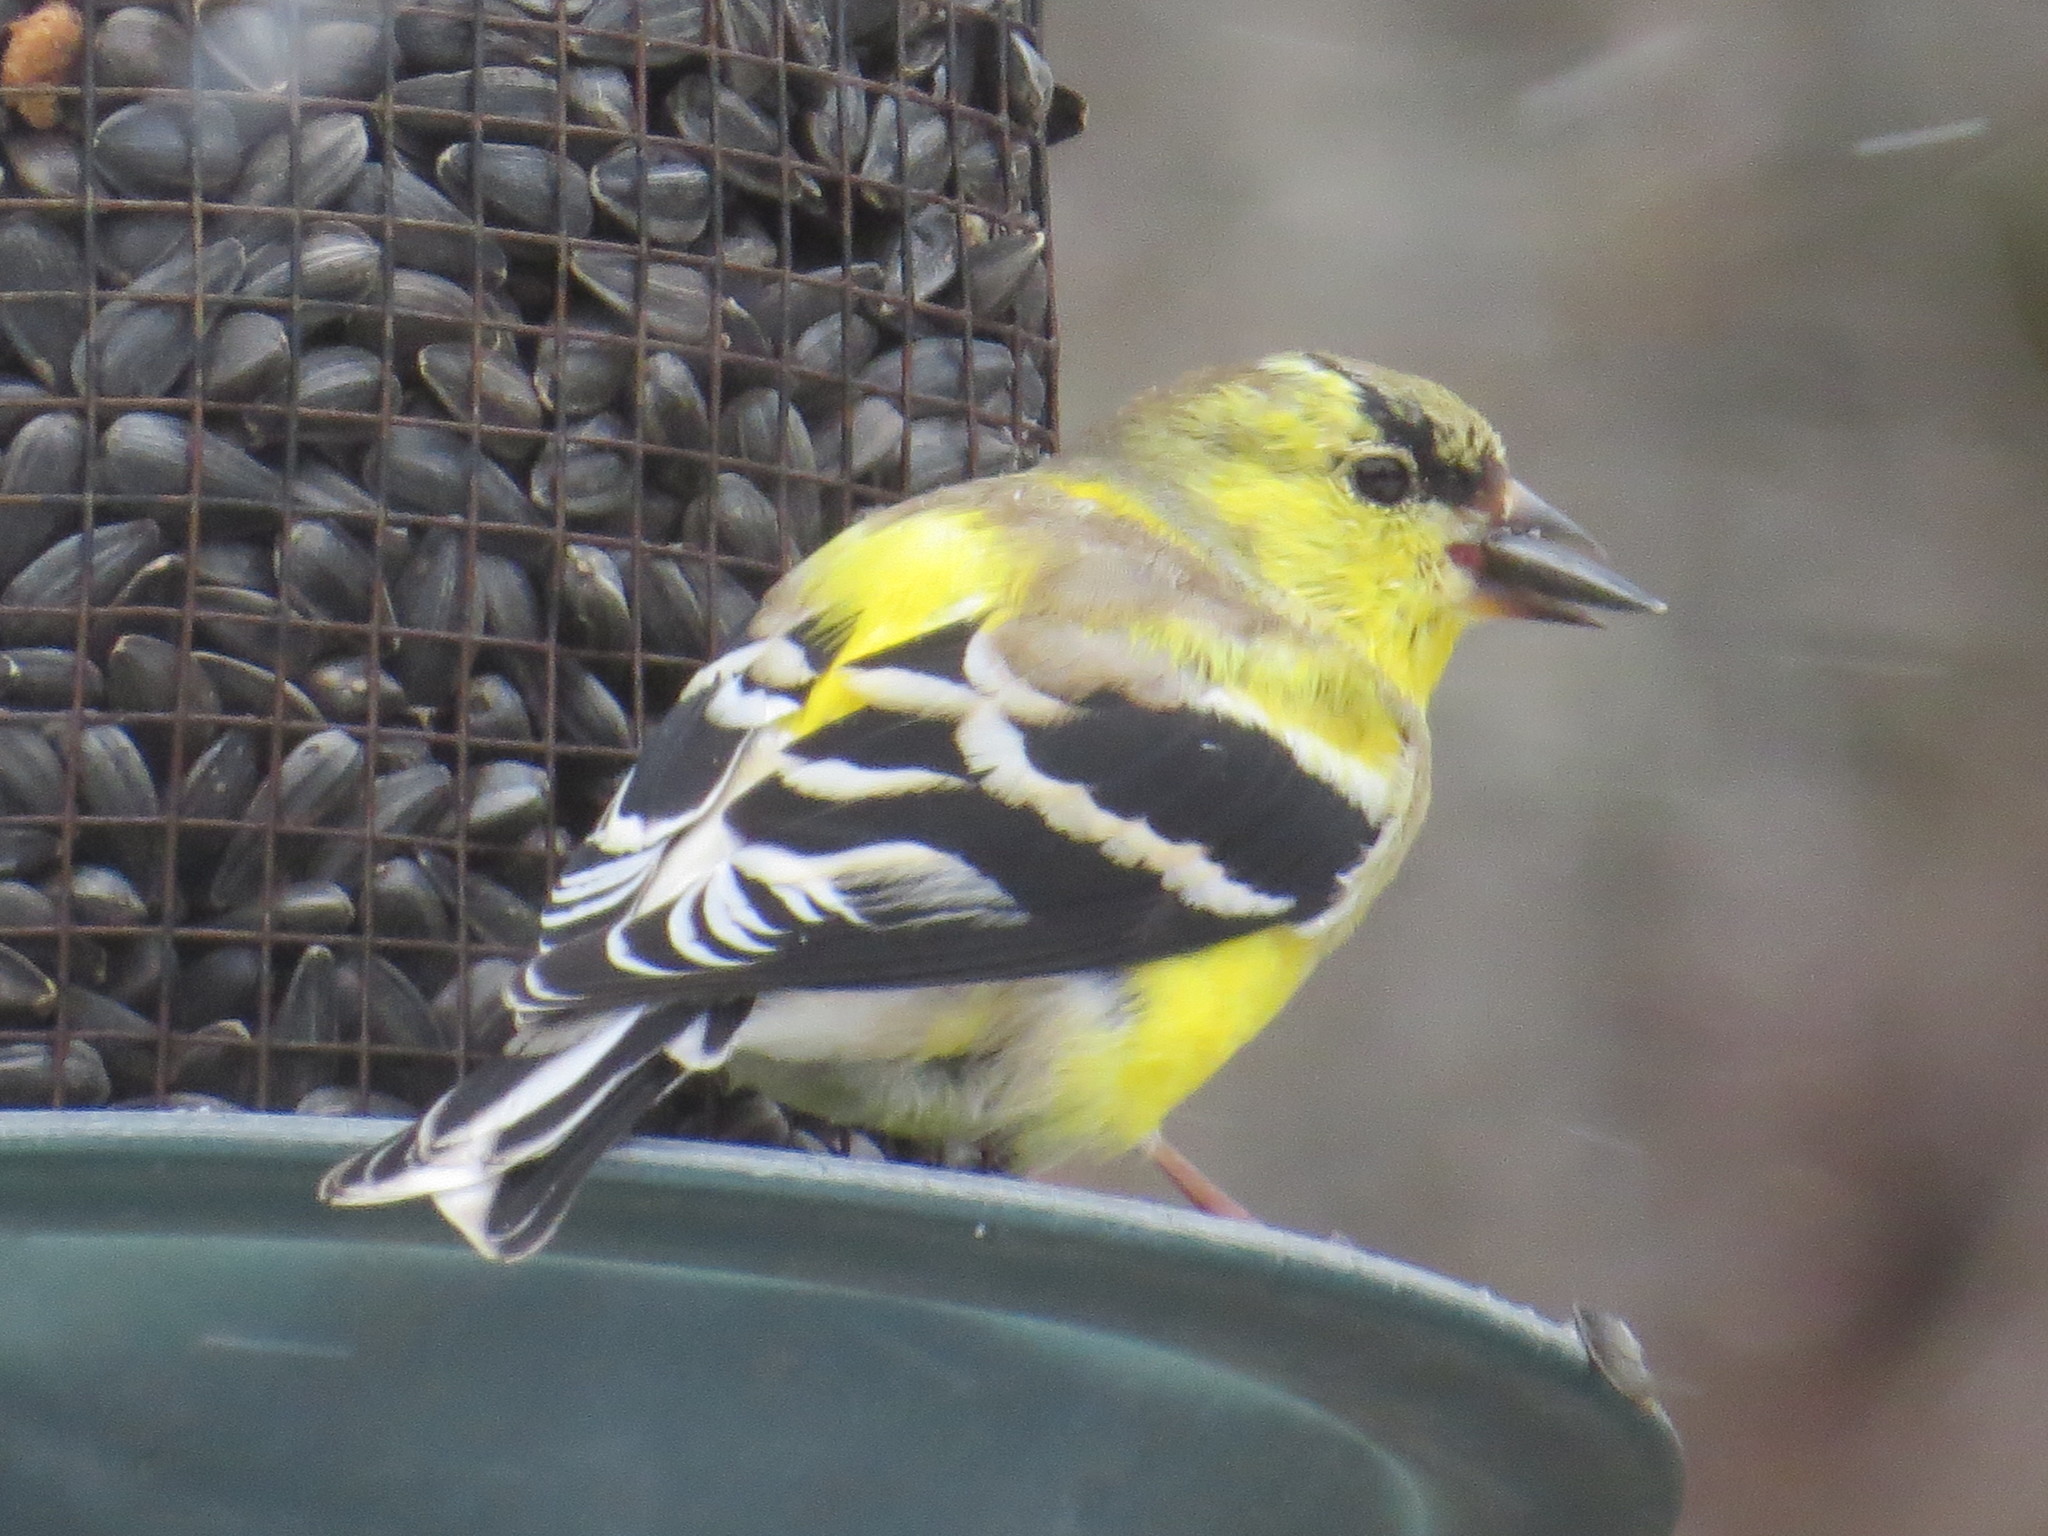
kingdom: Animalia
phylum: Chordata
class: Aves
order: Passeriformes
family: Fringillidae
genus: Spinus
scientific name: Spinus tristis
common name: American goldfinch
